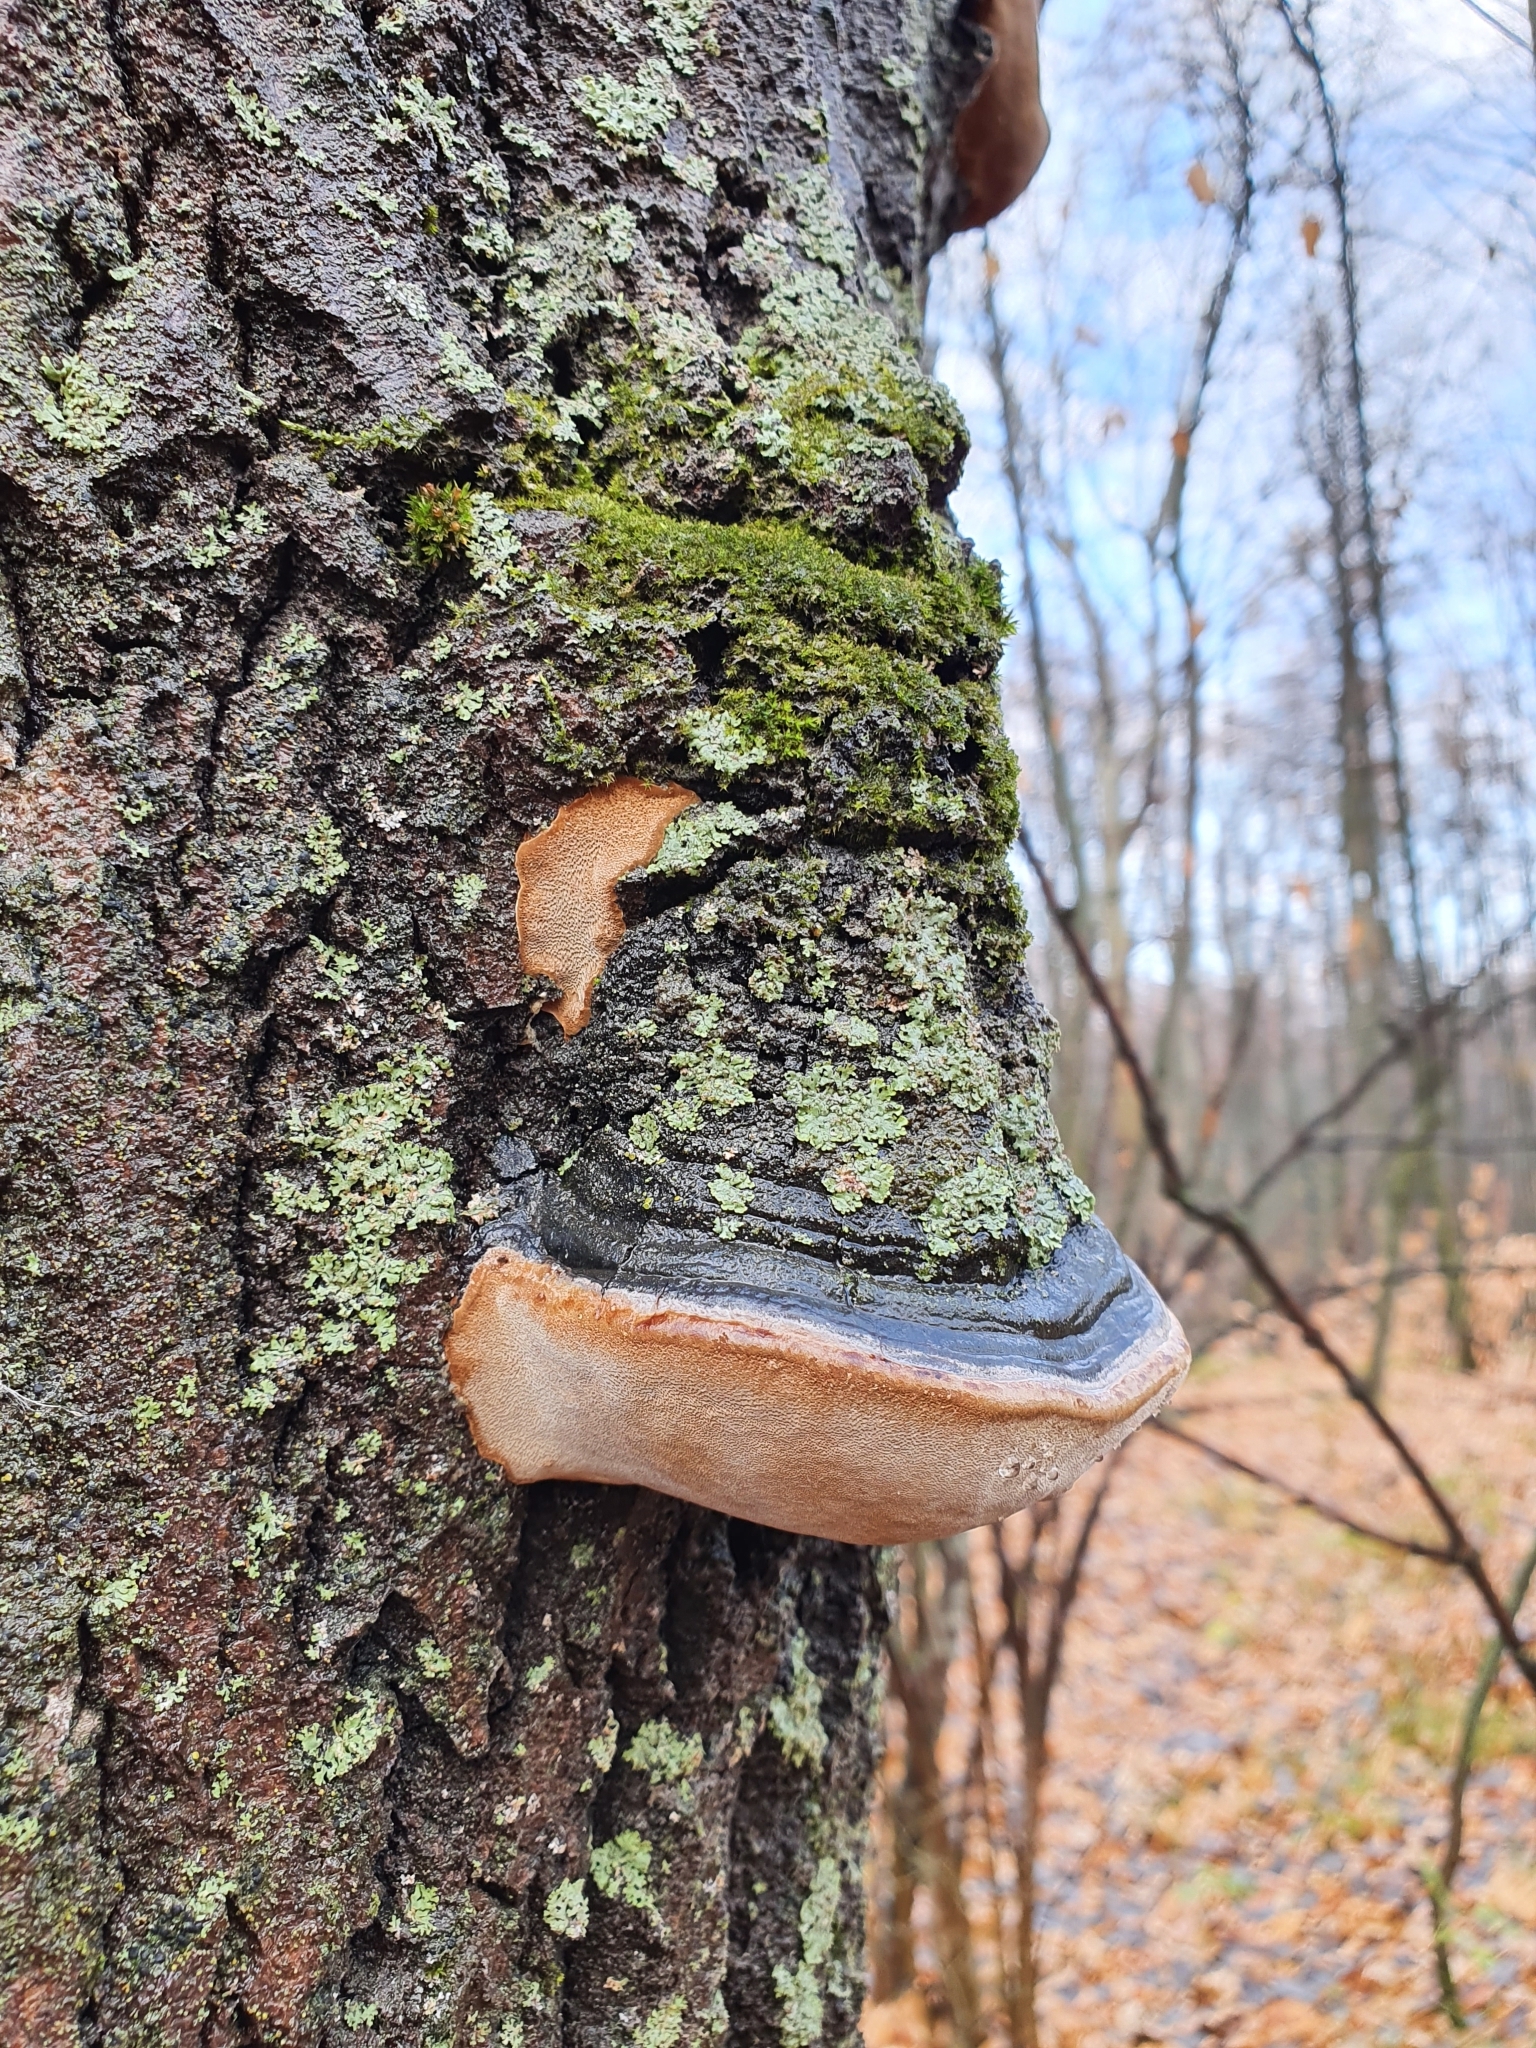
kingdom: Fungi
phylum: Basidiomycota
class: Agaricomycetes
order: Hymenochaetales
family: Hymenochaetaceae
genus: Phellinus
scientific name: Phellinus tremulae
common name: Aspen bracket
